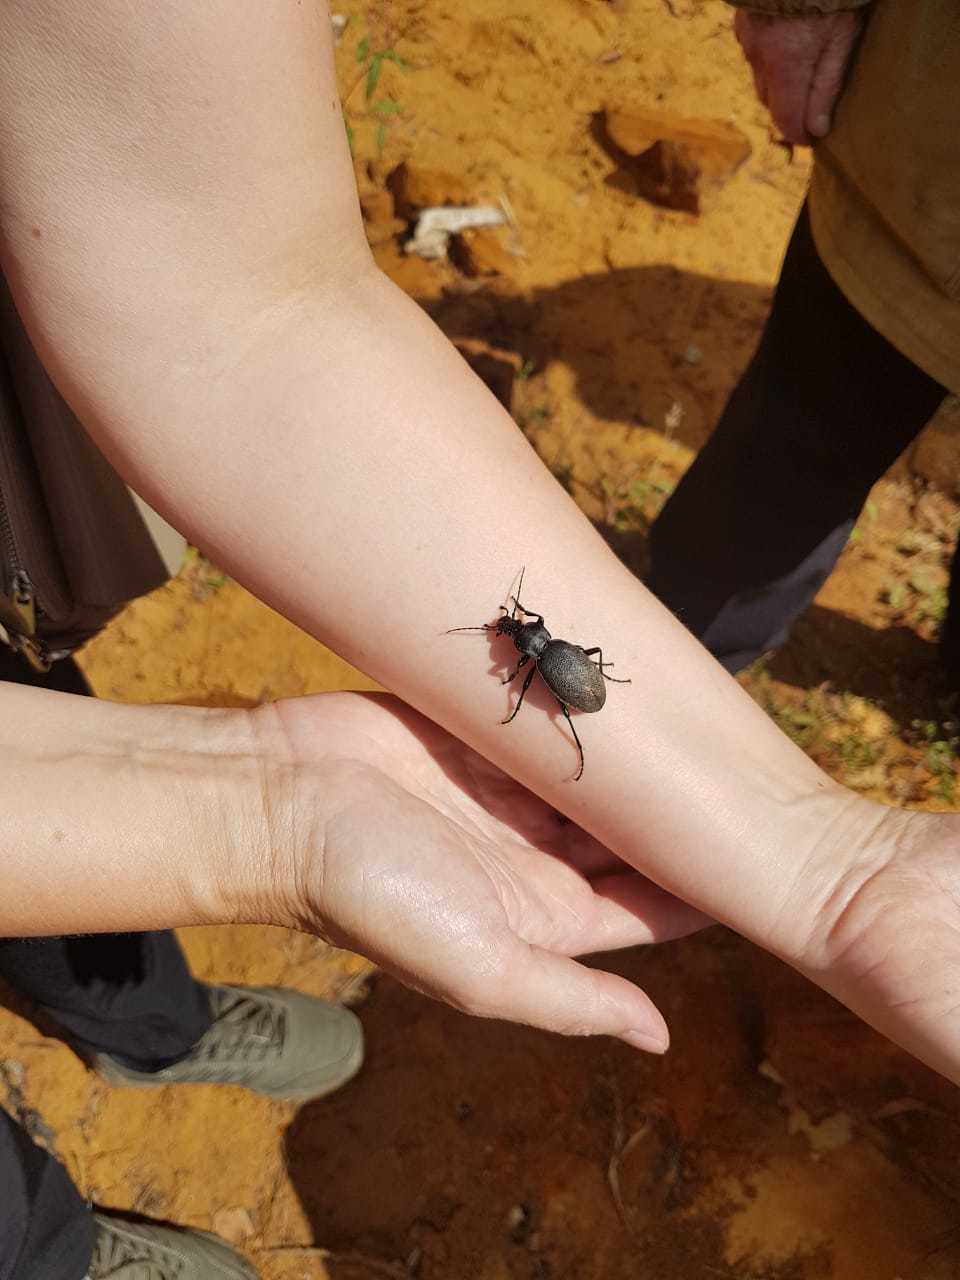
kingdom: Animalia
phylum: Arthropoda
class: Insecta
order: Coleoptera
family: Carabidae
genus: Carabus
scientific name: Carabus coriaceus
